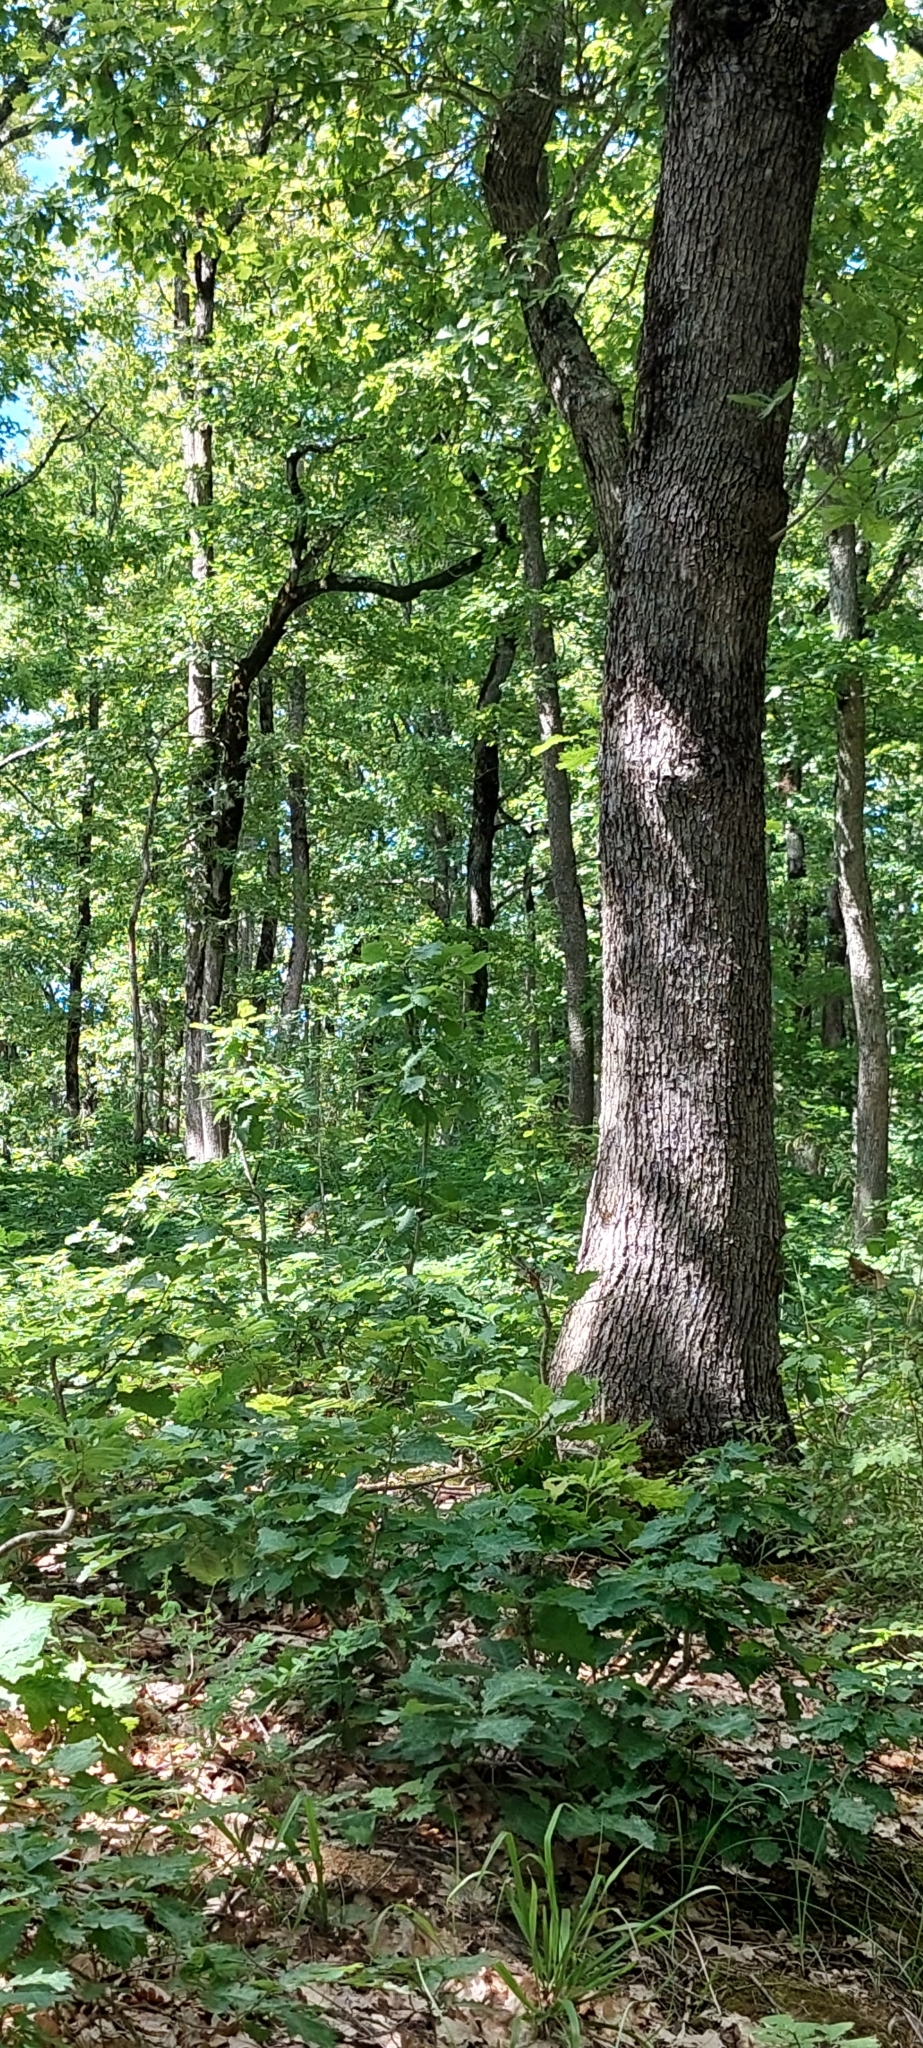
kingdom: Plantae
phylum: Tracheophyta
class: Magnoliopsida
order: Fagales
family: Fagaceae
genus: Quercus
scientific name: Quercus robur
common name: Pedunculate oak
